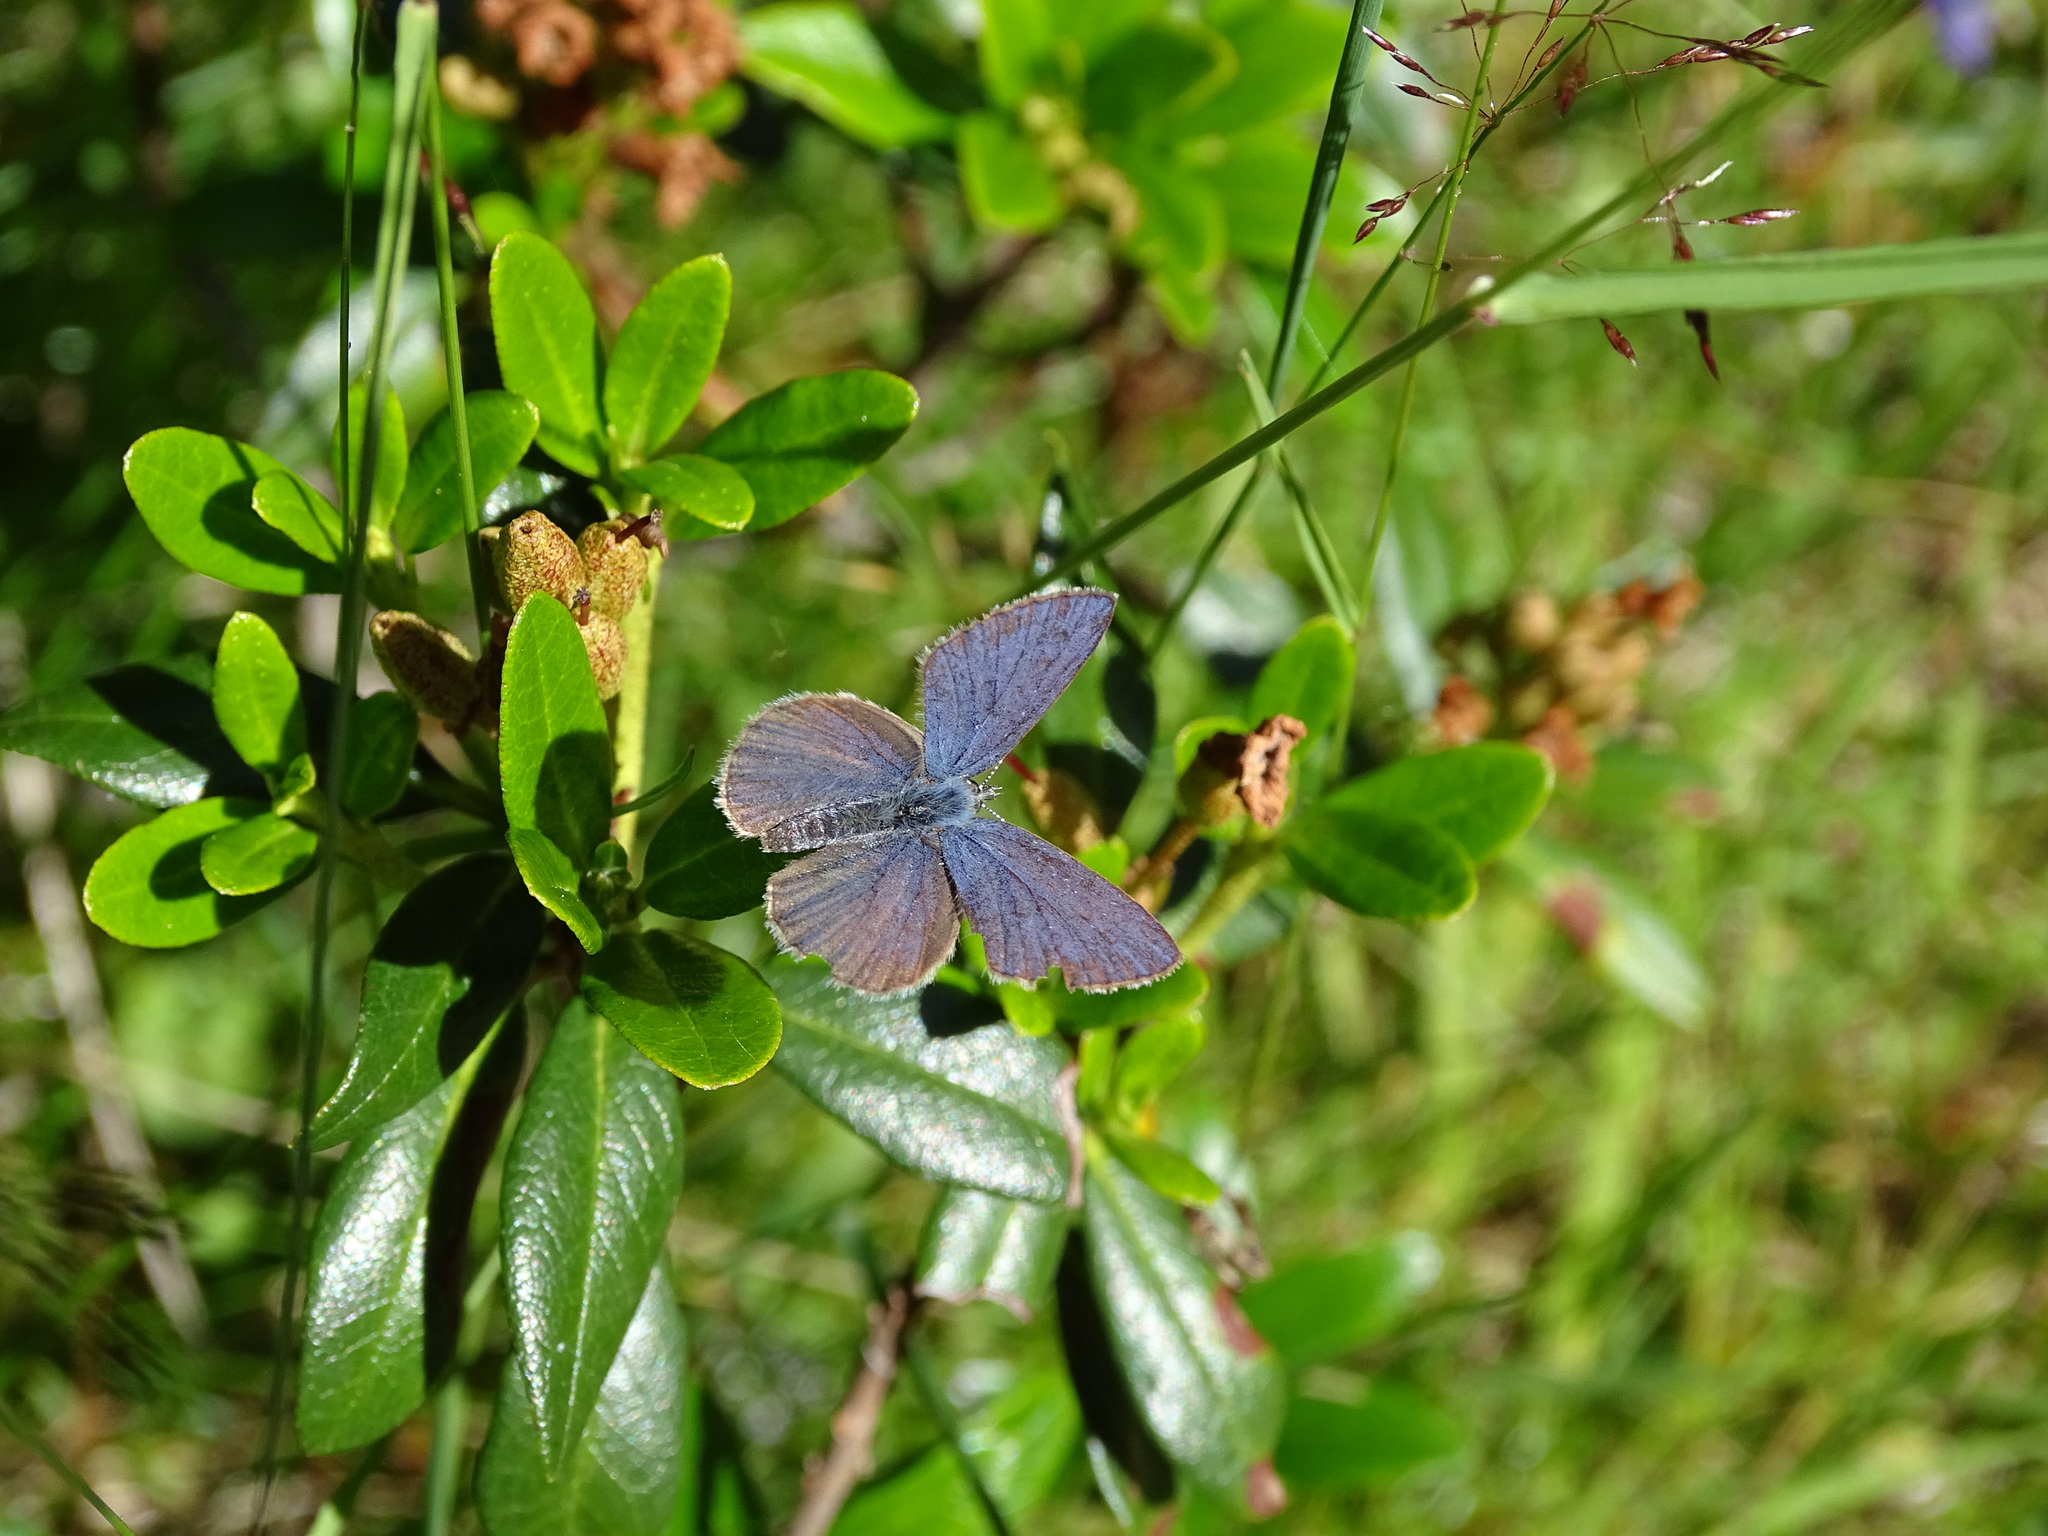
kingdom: Animalia
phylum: Arthropoda
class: Insecta
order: Lepidoptera
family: Lycaenidae
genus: Vacciniina
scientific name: Vacciniina optilete
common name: Cranberry blue
